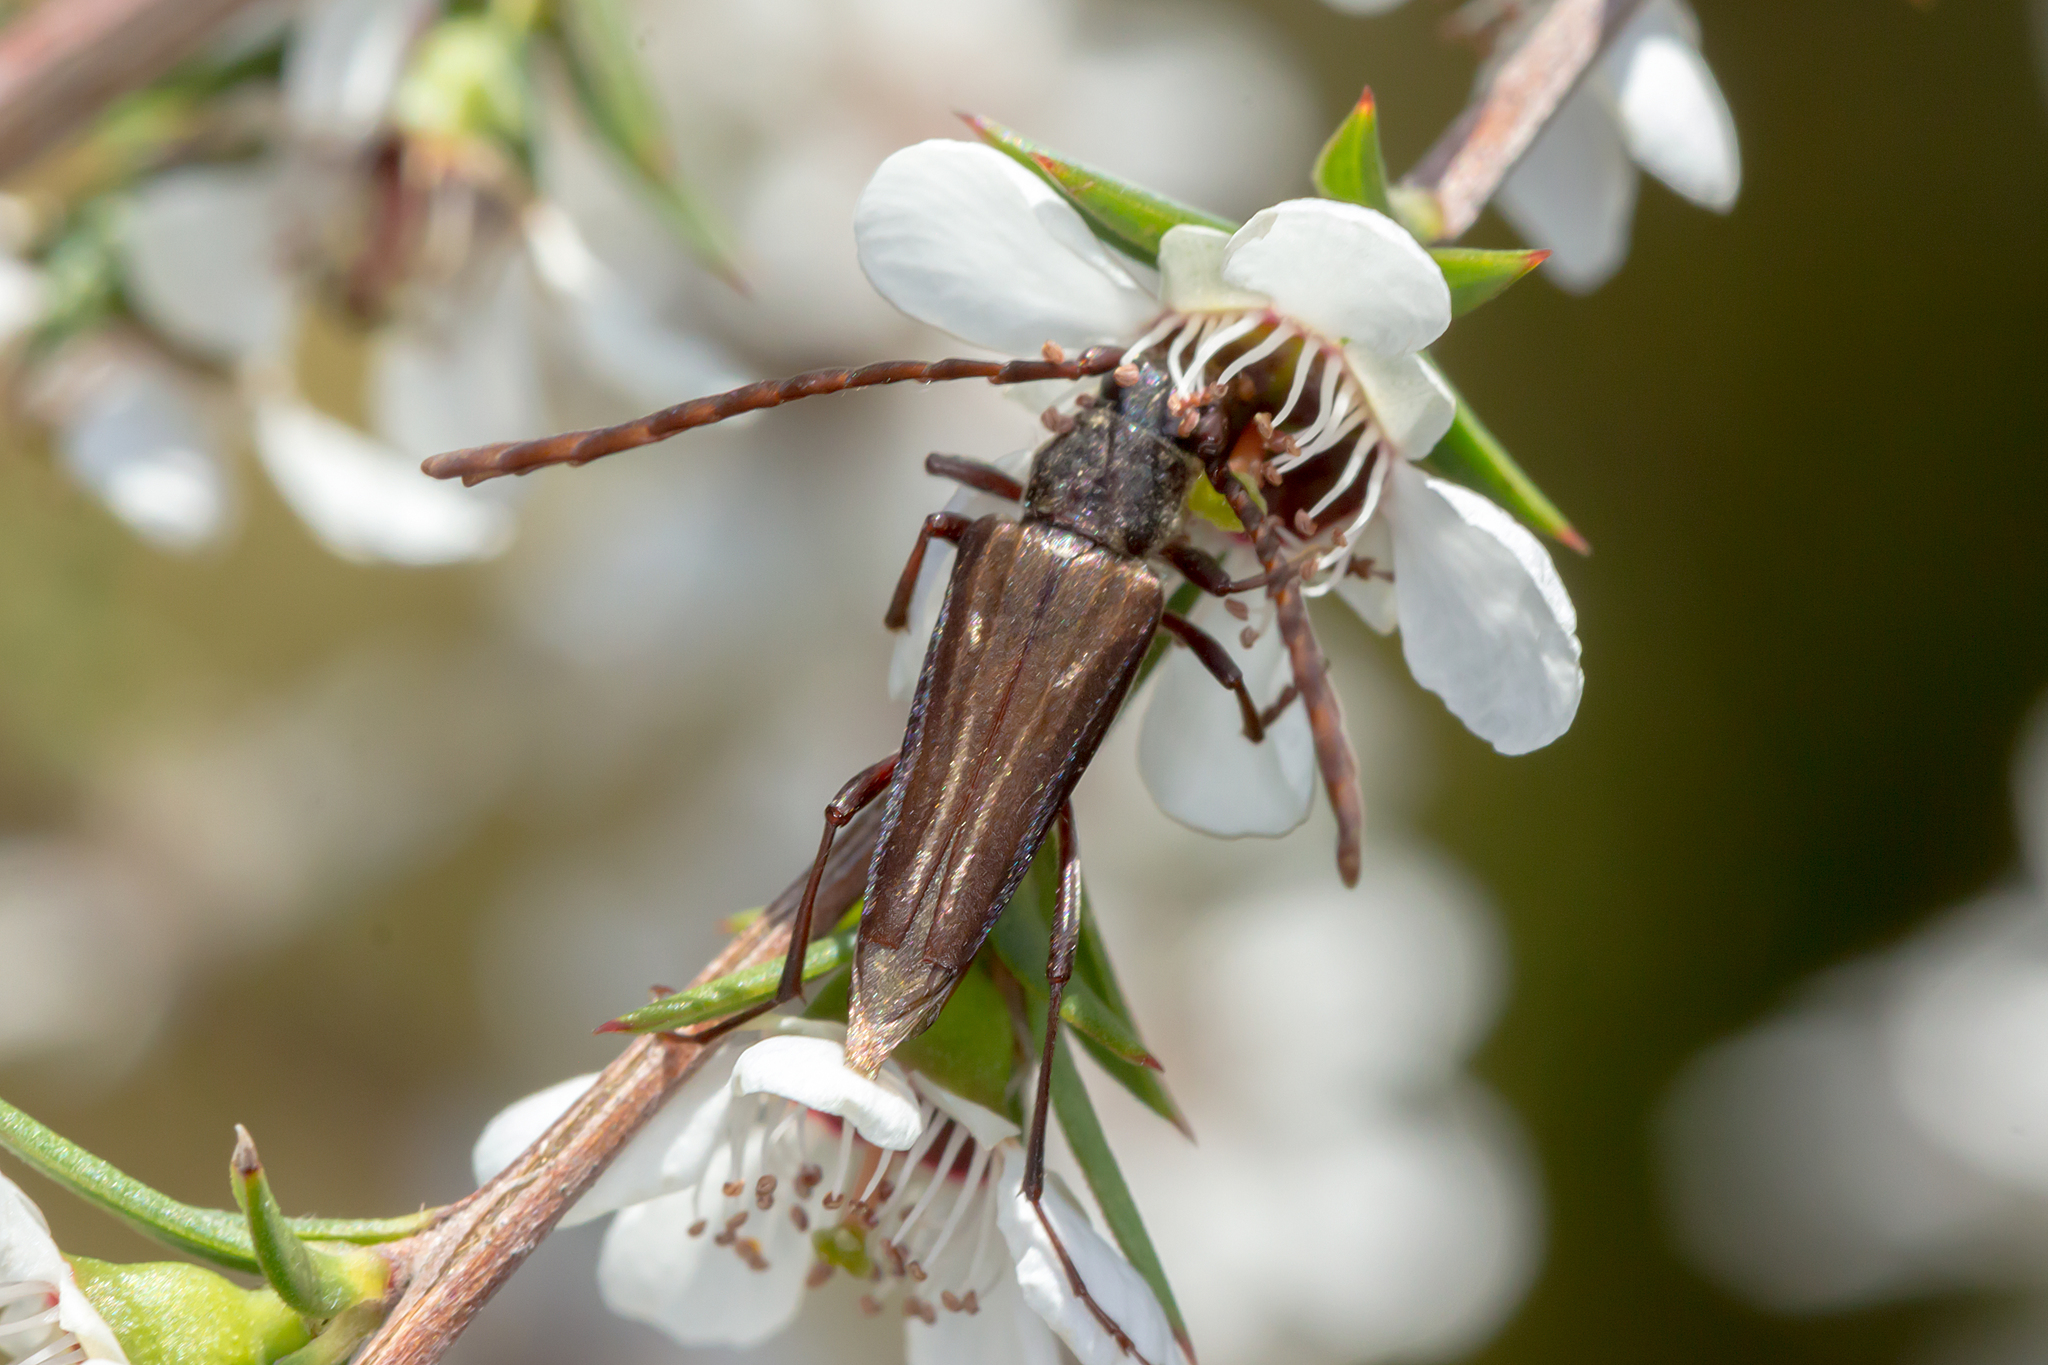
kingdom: Animalia
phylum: Arthropoda
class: Insecta
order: Coleoptera
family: Cerambycidae
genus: Distichocera
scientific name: Distichocera fuliginosa
